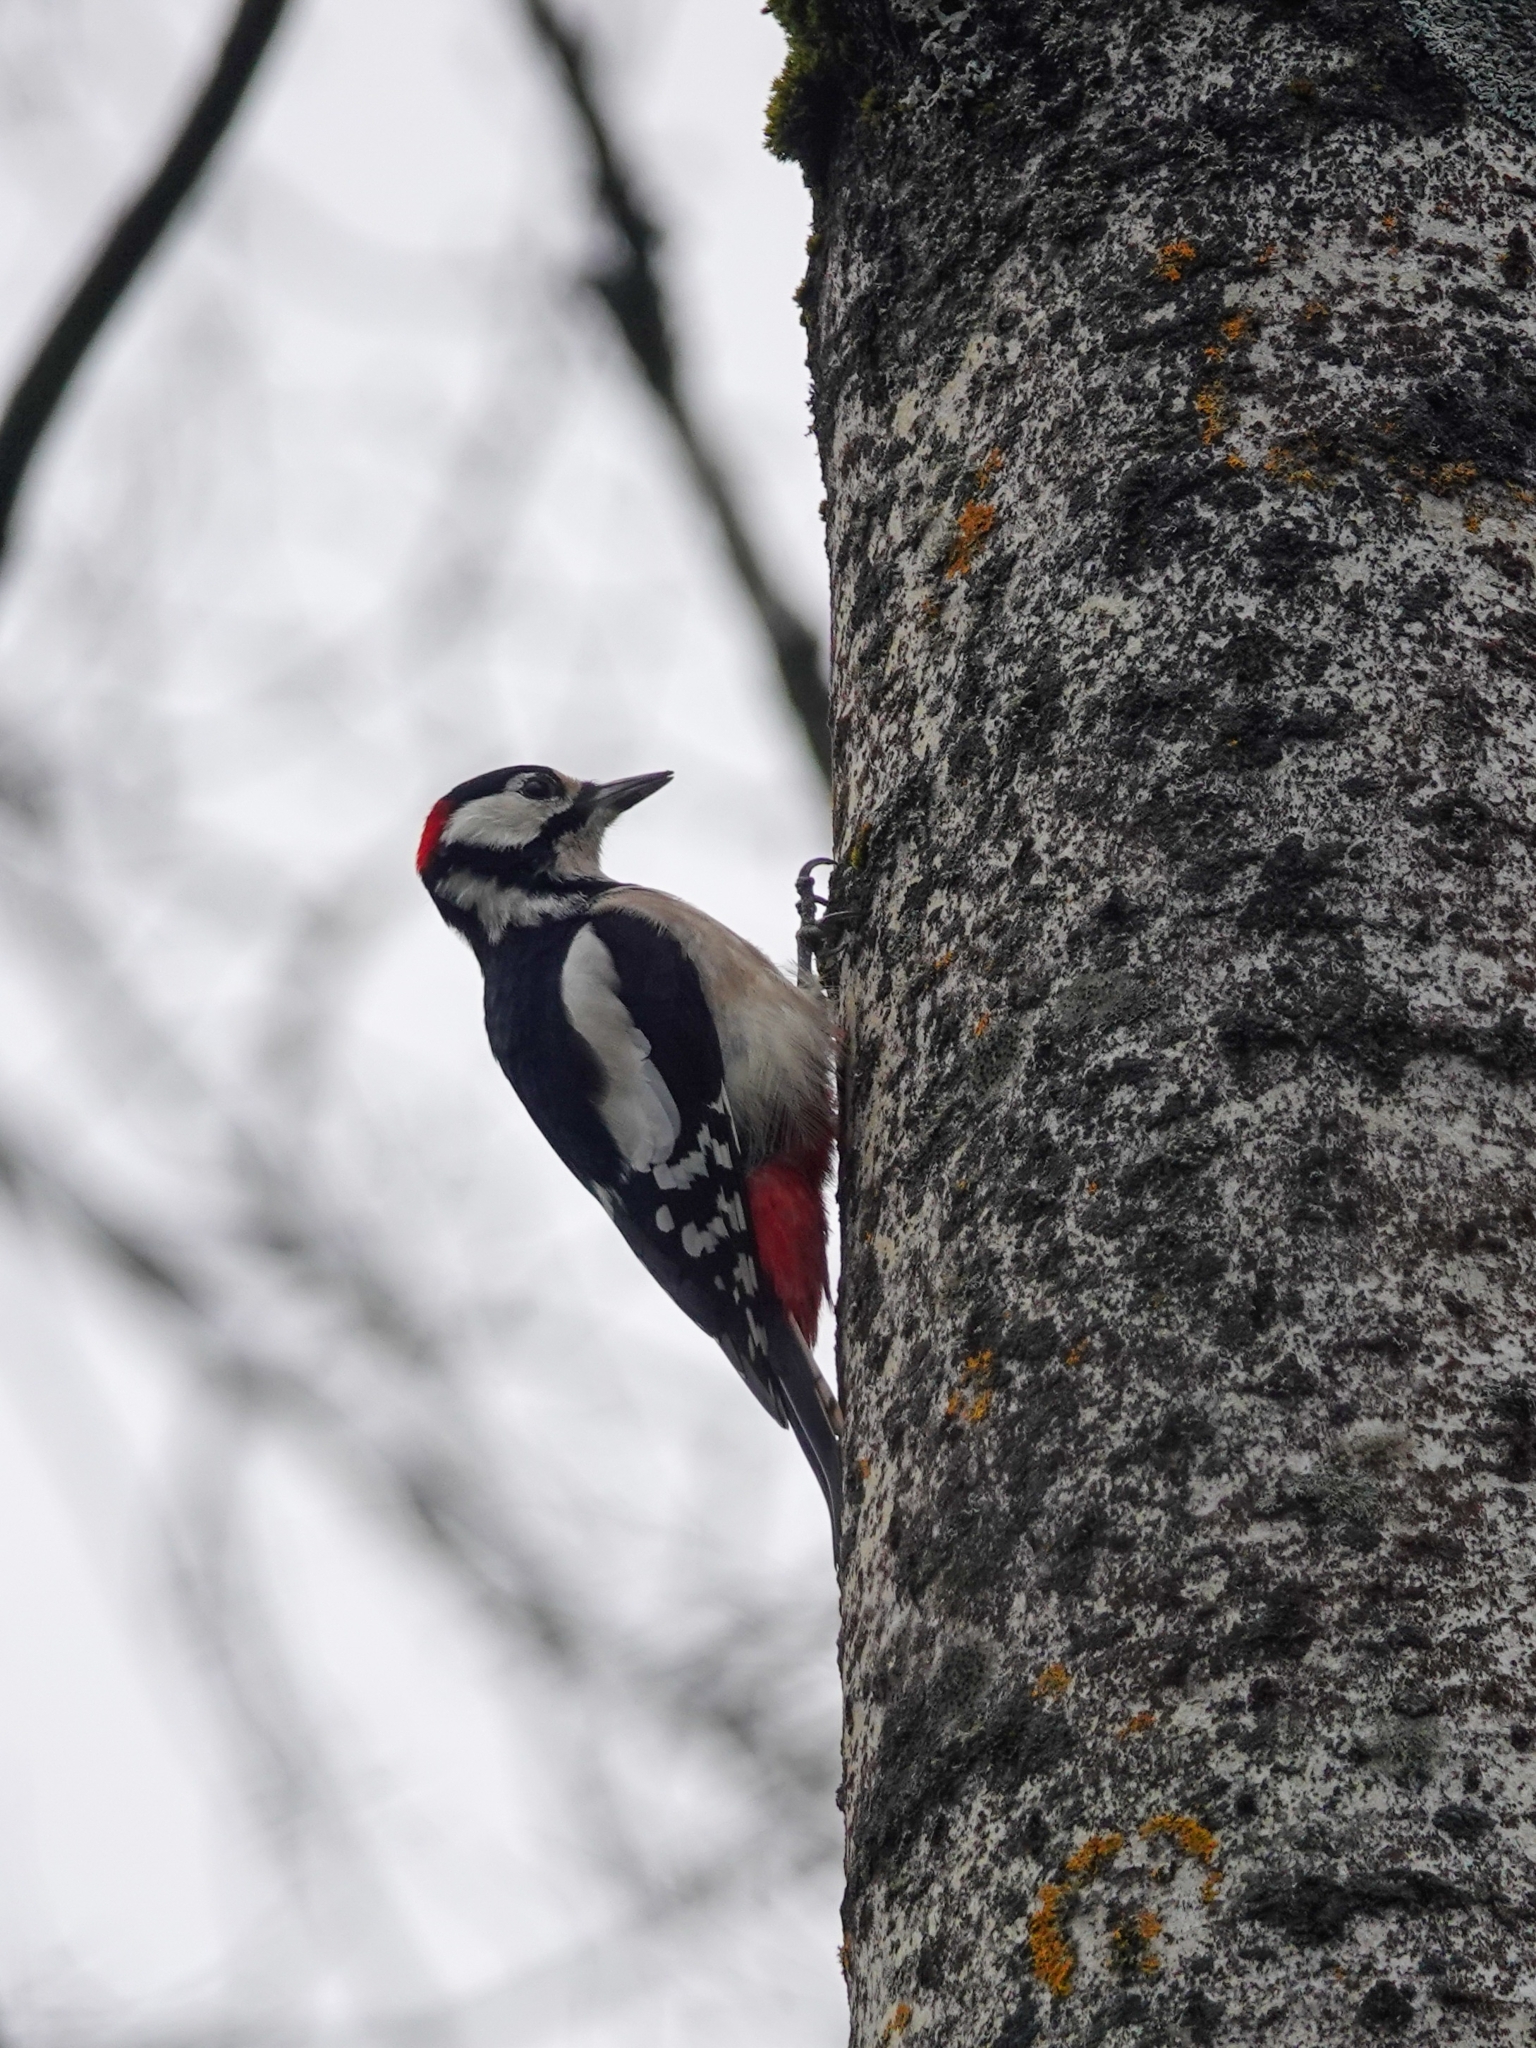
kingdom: Animalia
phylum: Chordata
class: Aves
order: Piciformes
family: Picidae
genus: Dendrocopos
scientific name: Dendrocopos major
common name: Great spotted woodpecker
